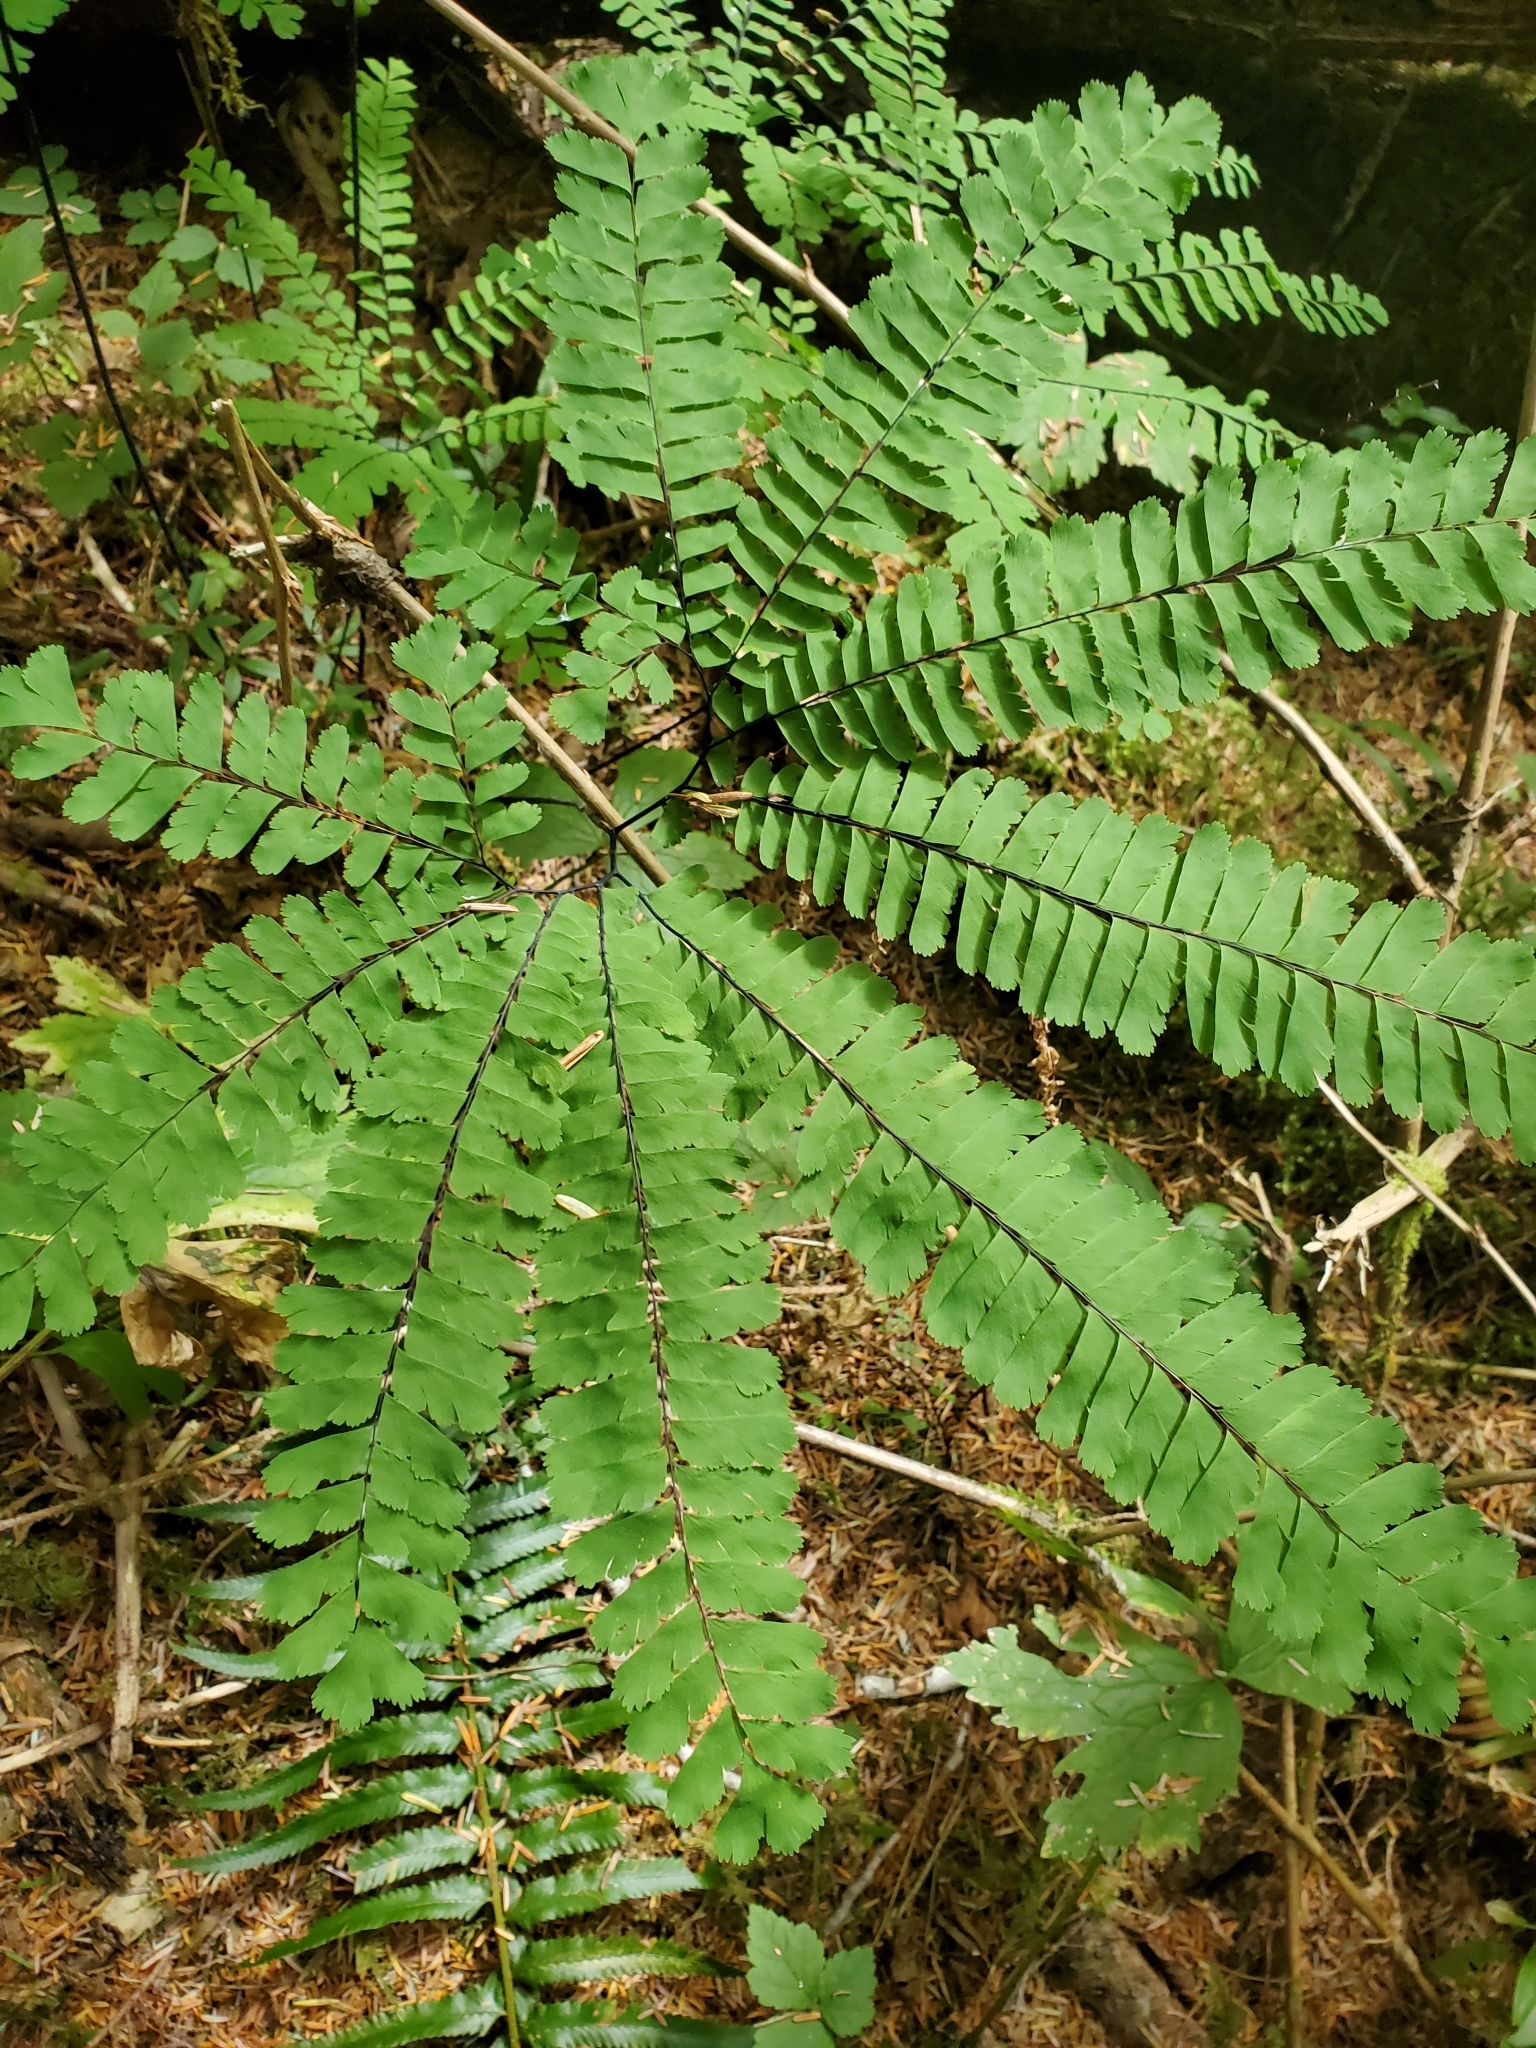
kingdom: Plantae
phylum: Tracheophyta
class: Polypodiopsida
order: Polypodiales
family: Pteridaceae
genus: Adiantum
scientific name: Adiantum aleuticum
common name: Aleutian maidenhair fern
